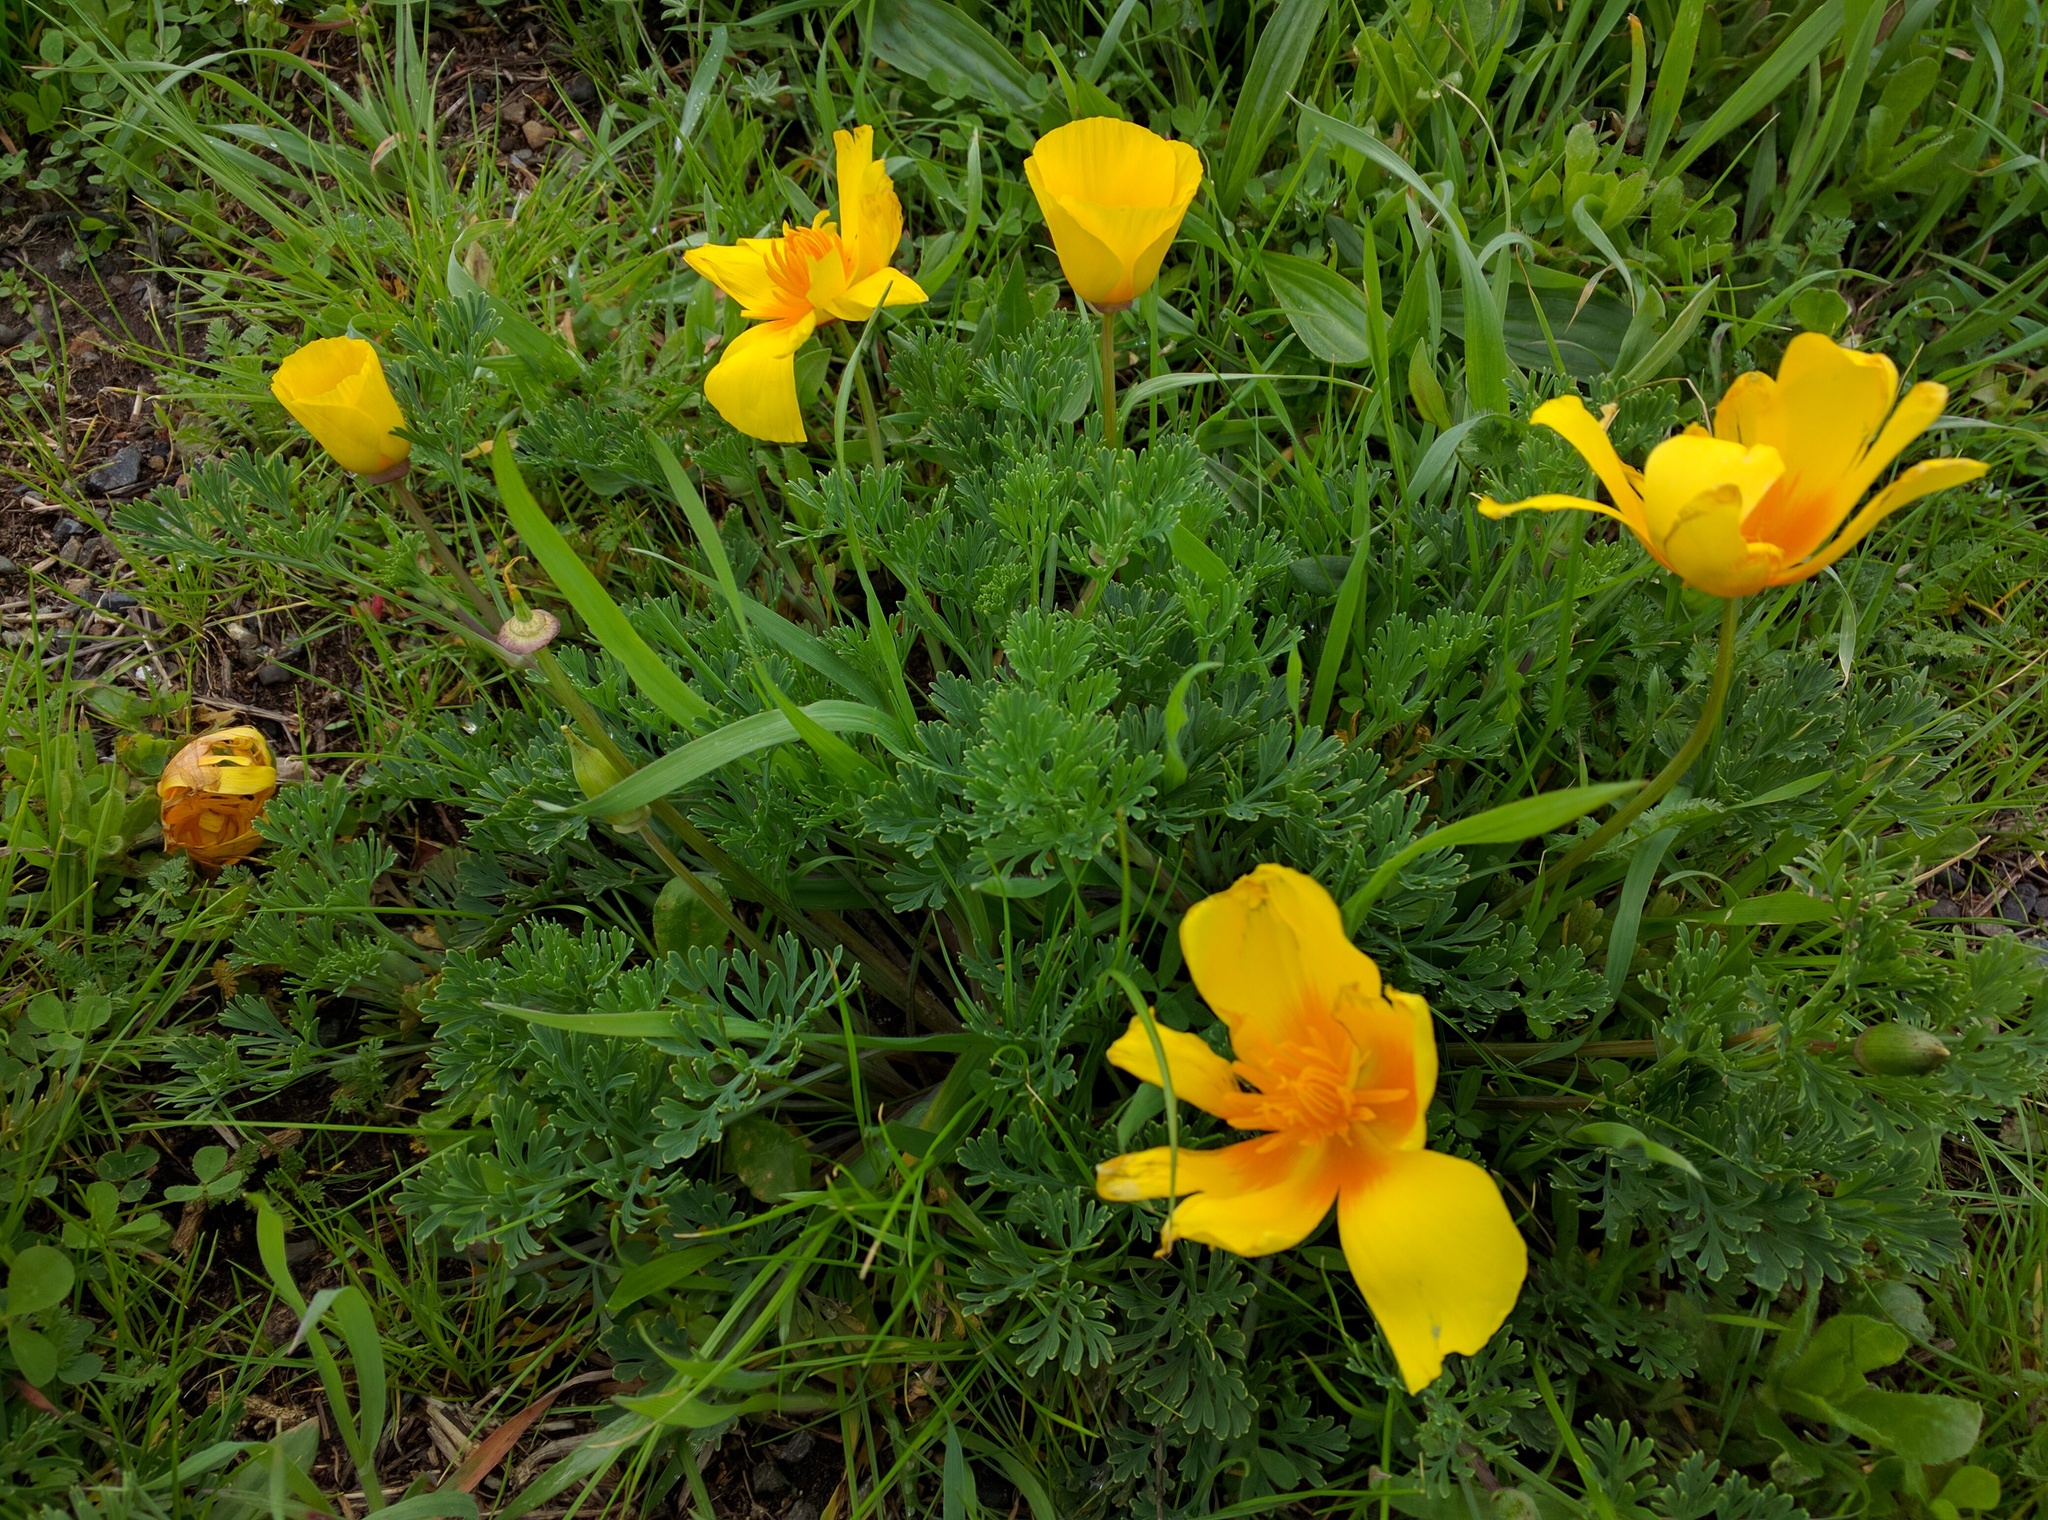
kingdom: Plantae
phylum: Tracheophyta
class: Magnoliopsida
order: Ranunculales
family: Papaveraceae
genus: Eschscholzia
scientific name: Eschscholzia californica
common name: California poppy
